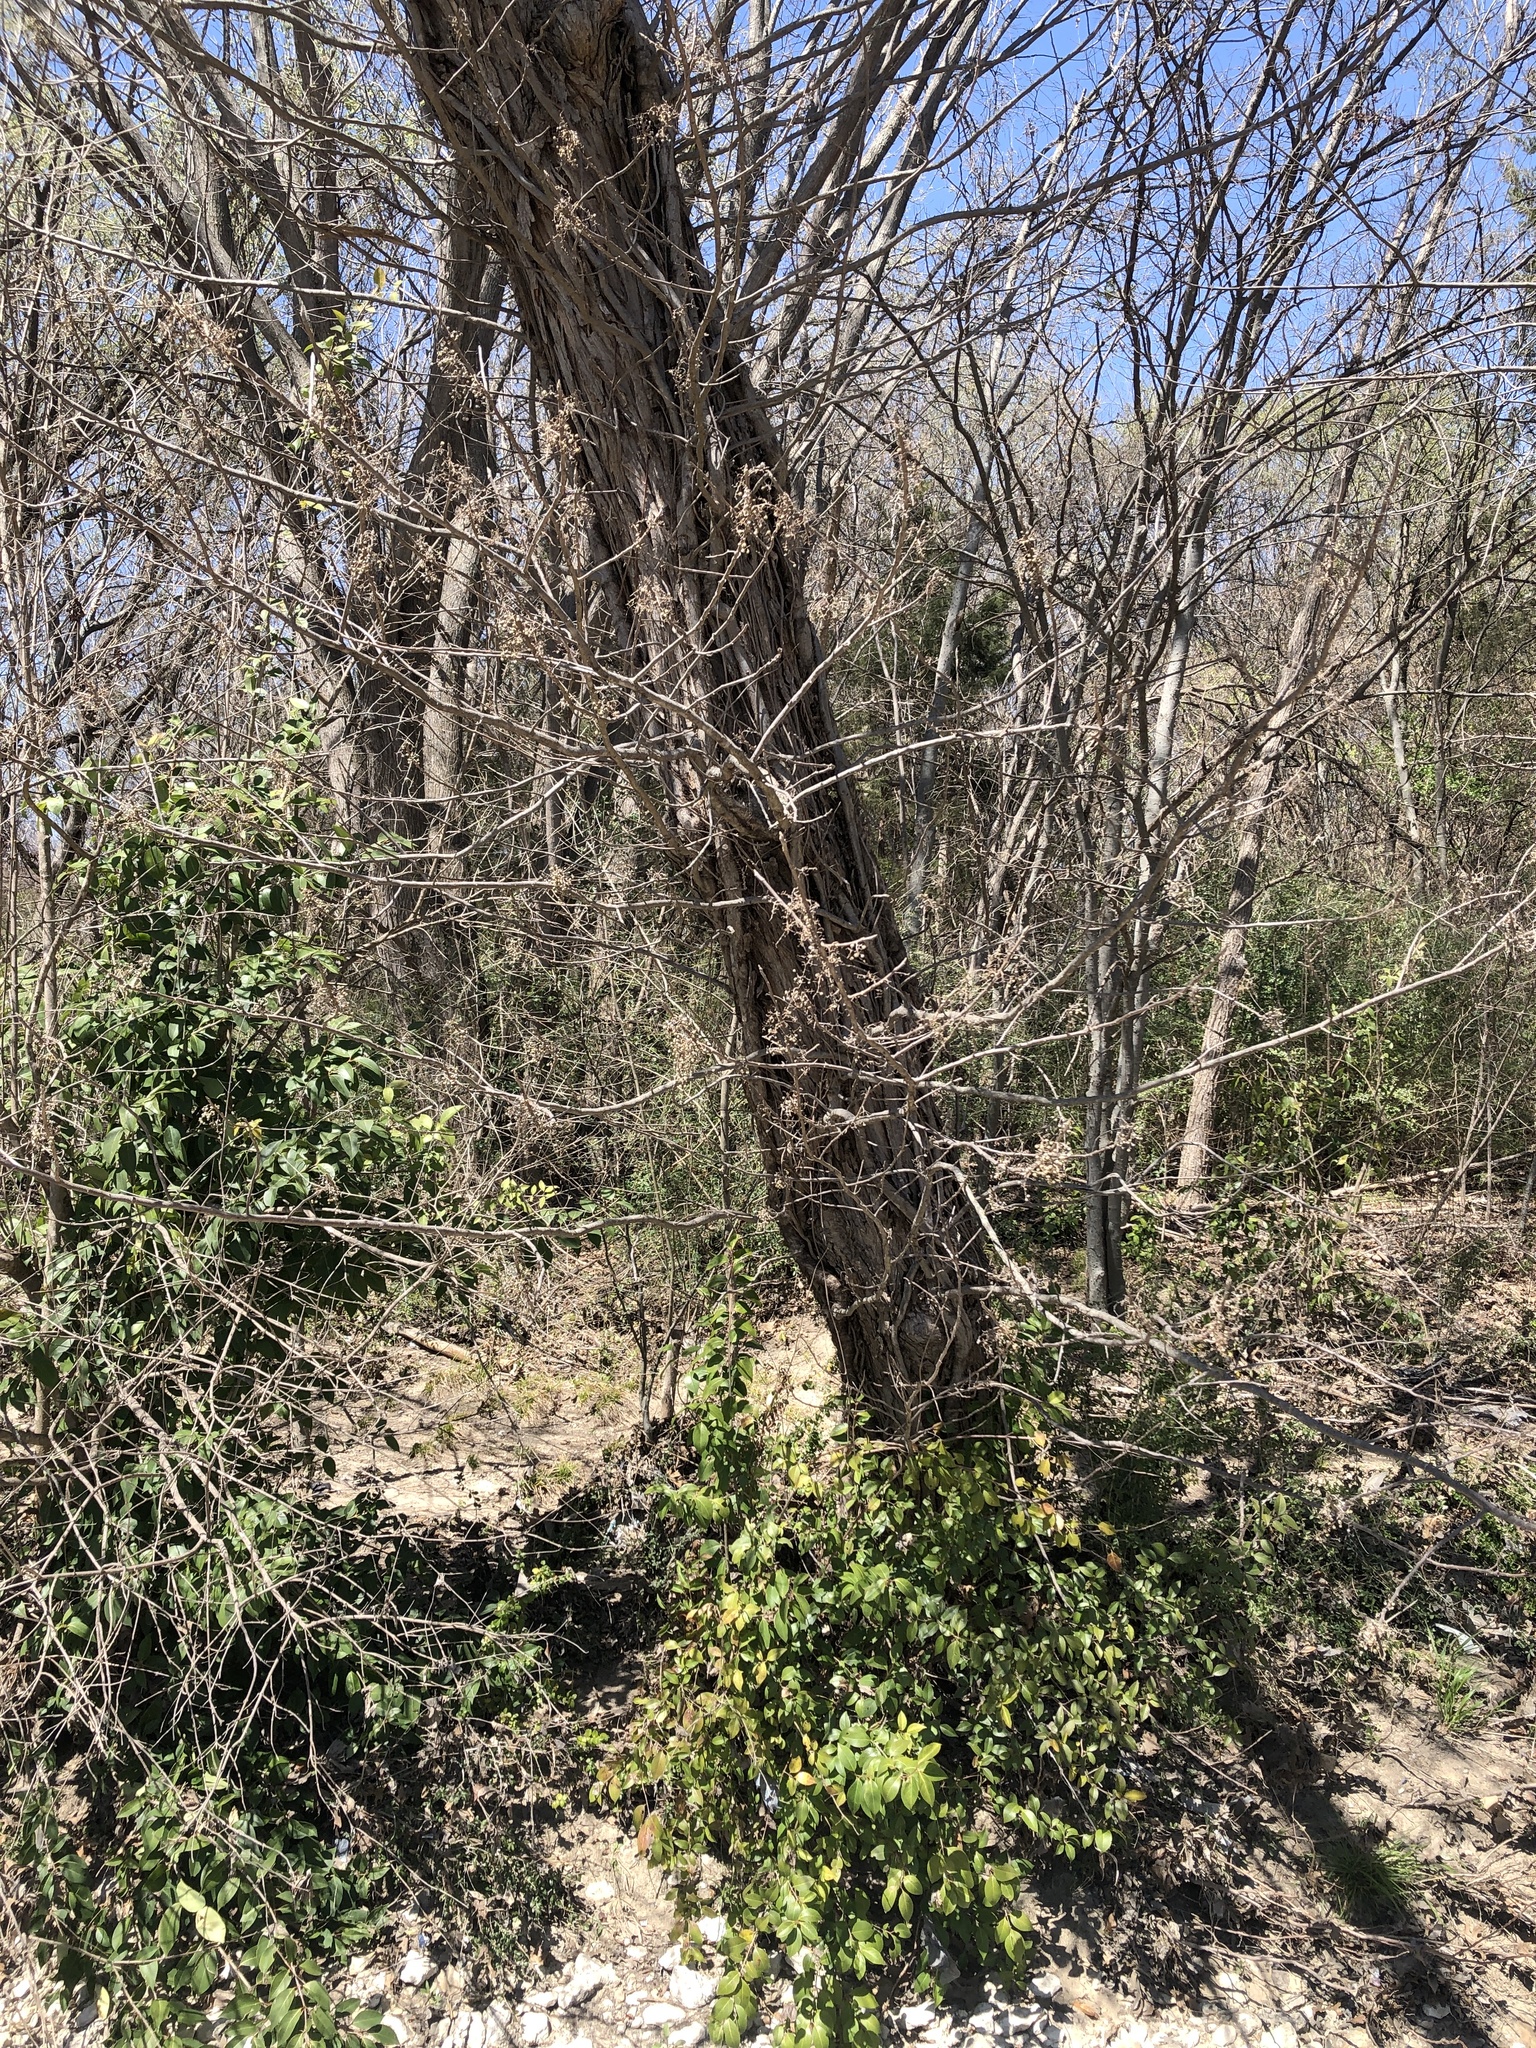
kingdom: Plantae
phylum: Tracheophyta
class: Magnoliopsida
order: Sapindales
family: Anacardiaceae
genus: Toxicodendron
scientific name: Toxicodendron radicans
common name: Poison ivy
